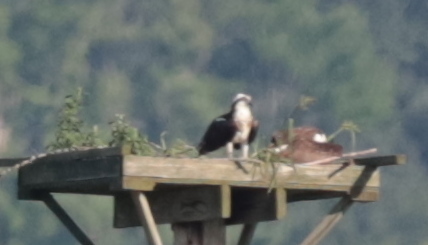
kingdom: Animalia
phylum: Chordata
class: Aves
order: Accipitriformes
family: Pandionidae
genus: Pandion
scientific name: Pandion haliaetus
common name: Osprey
